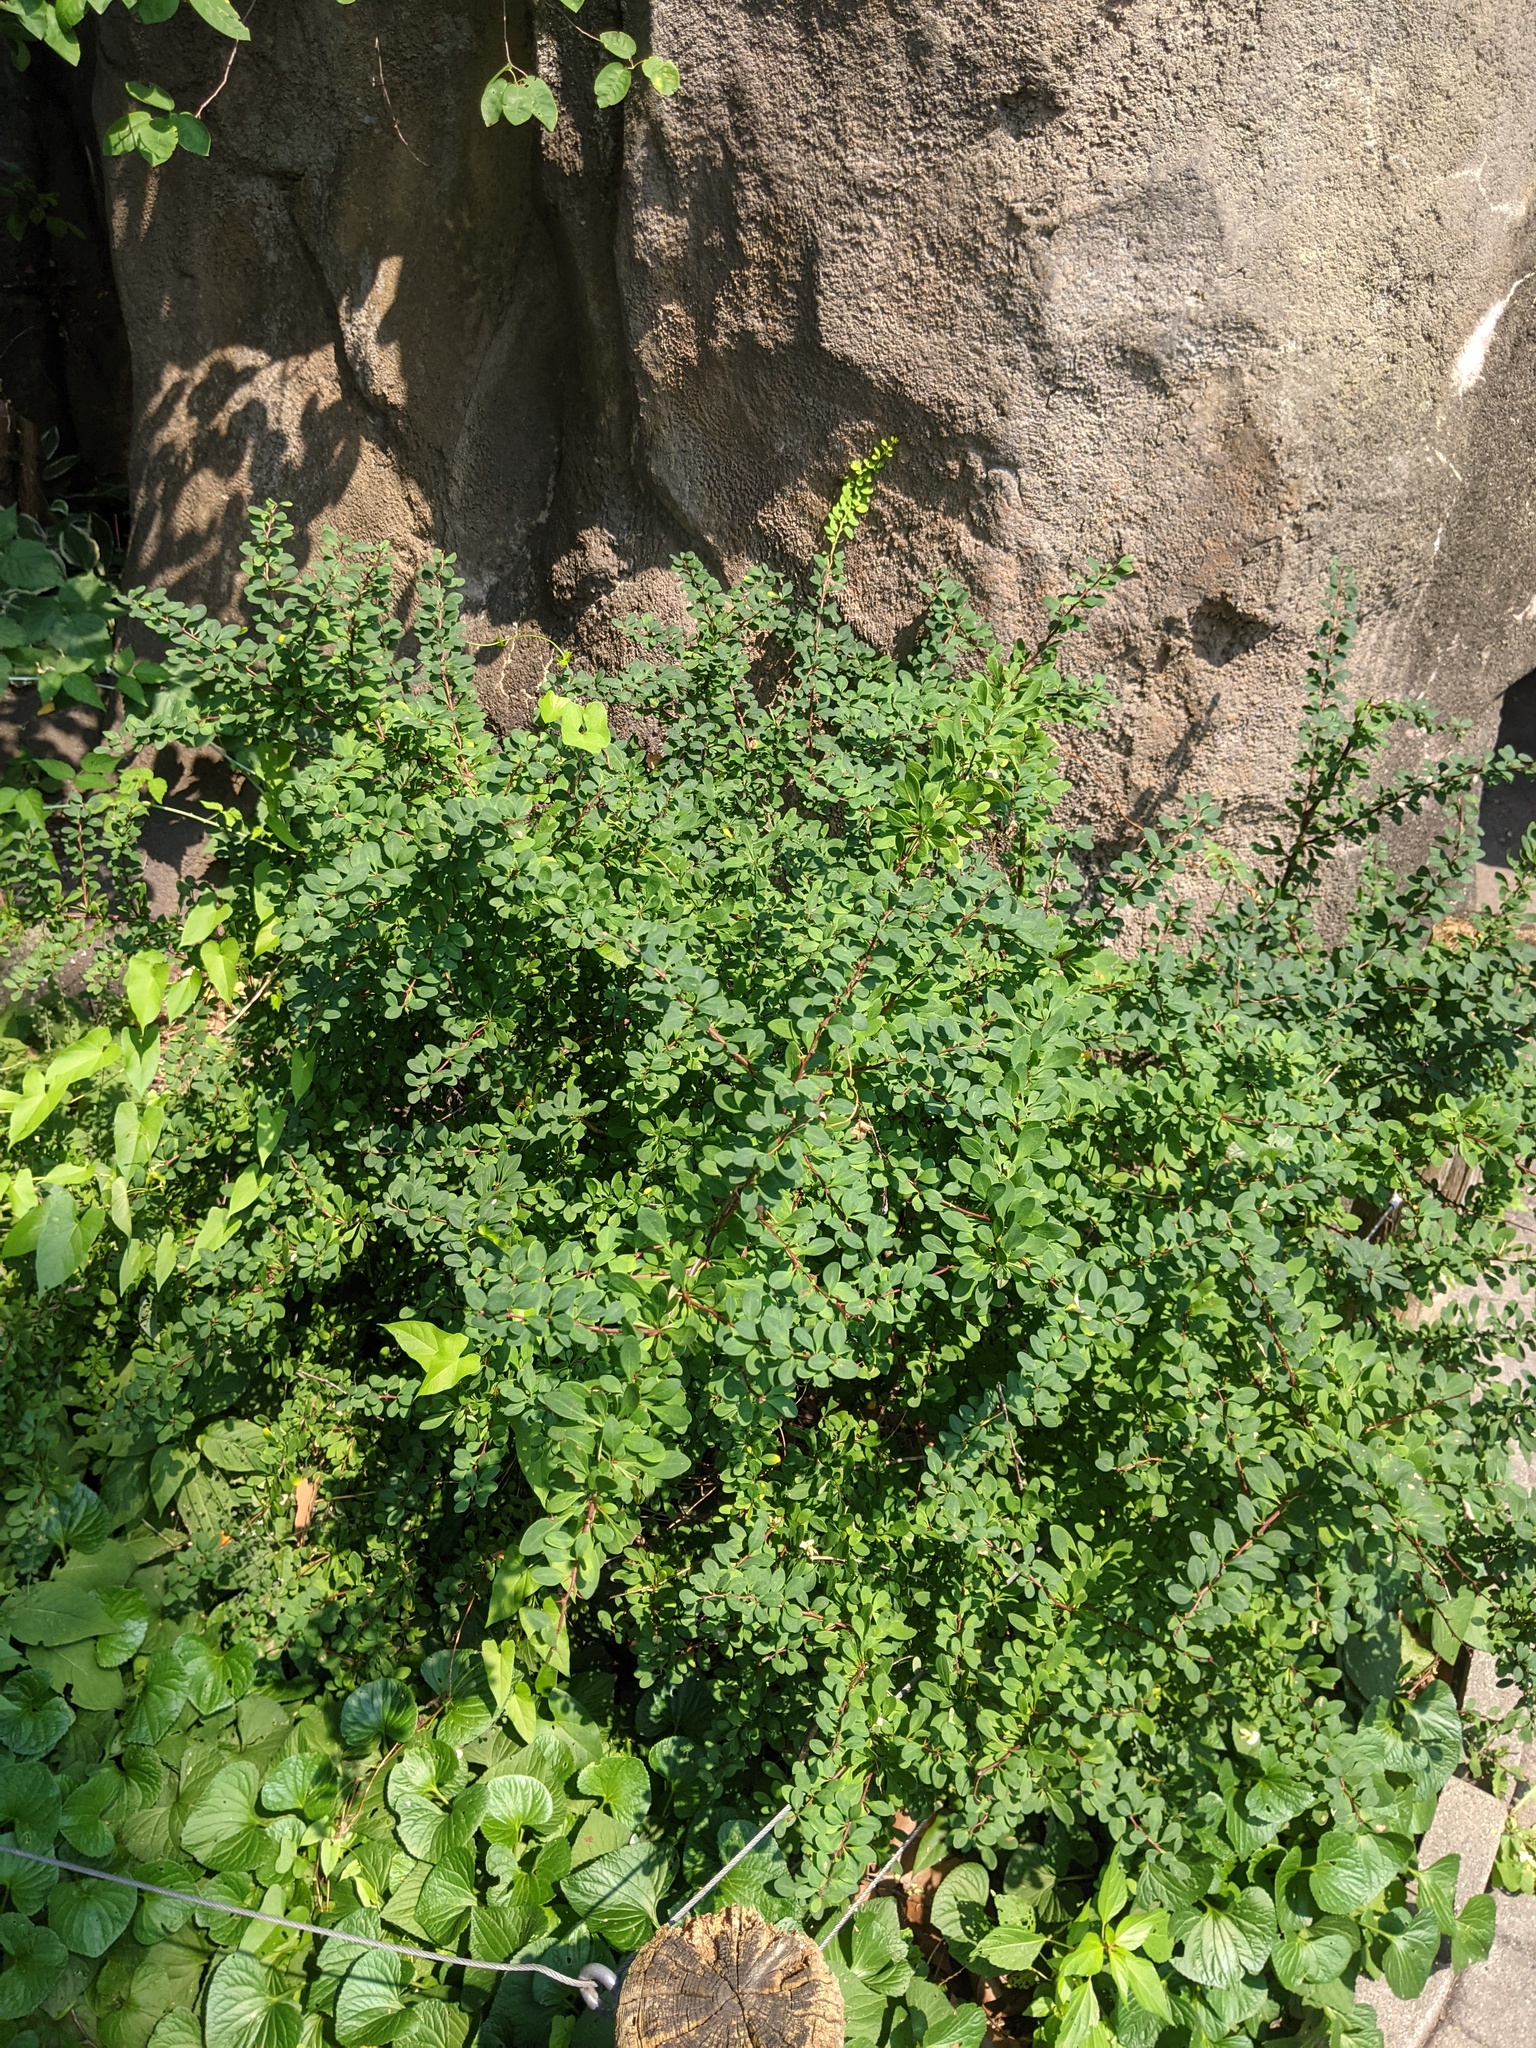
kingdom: Plantae
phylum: Tracheophyta
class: Magnoliopsida
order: Ranunculales
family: Berberidaceae
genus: Berberis
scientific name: Berberis thunbergii
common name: Japanese barberry
